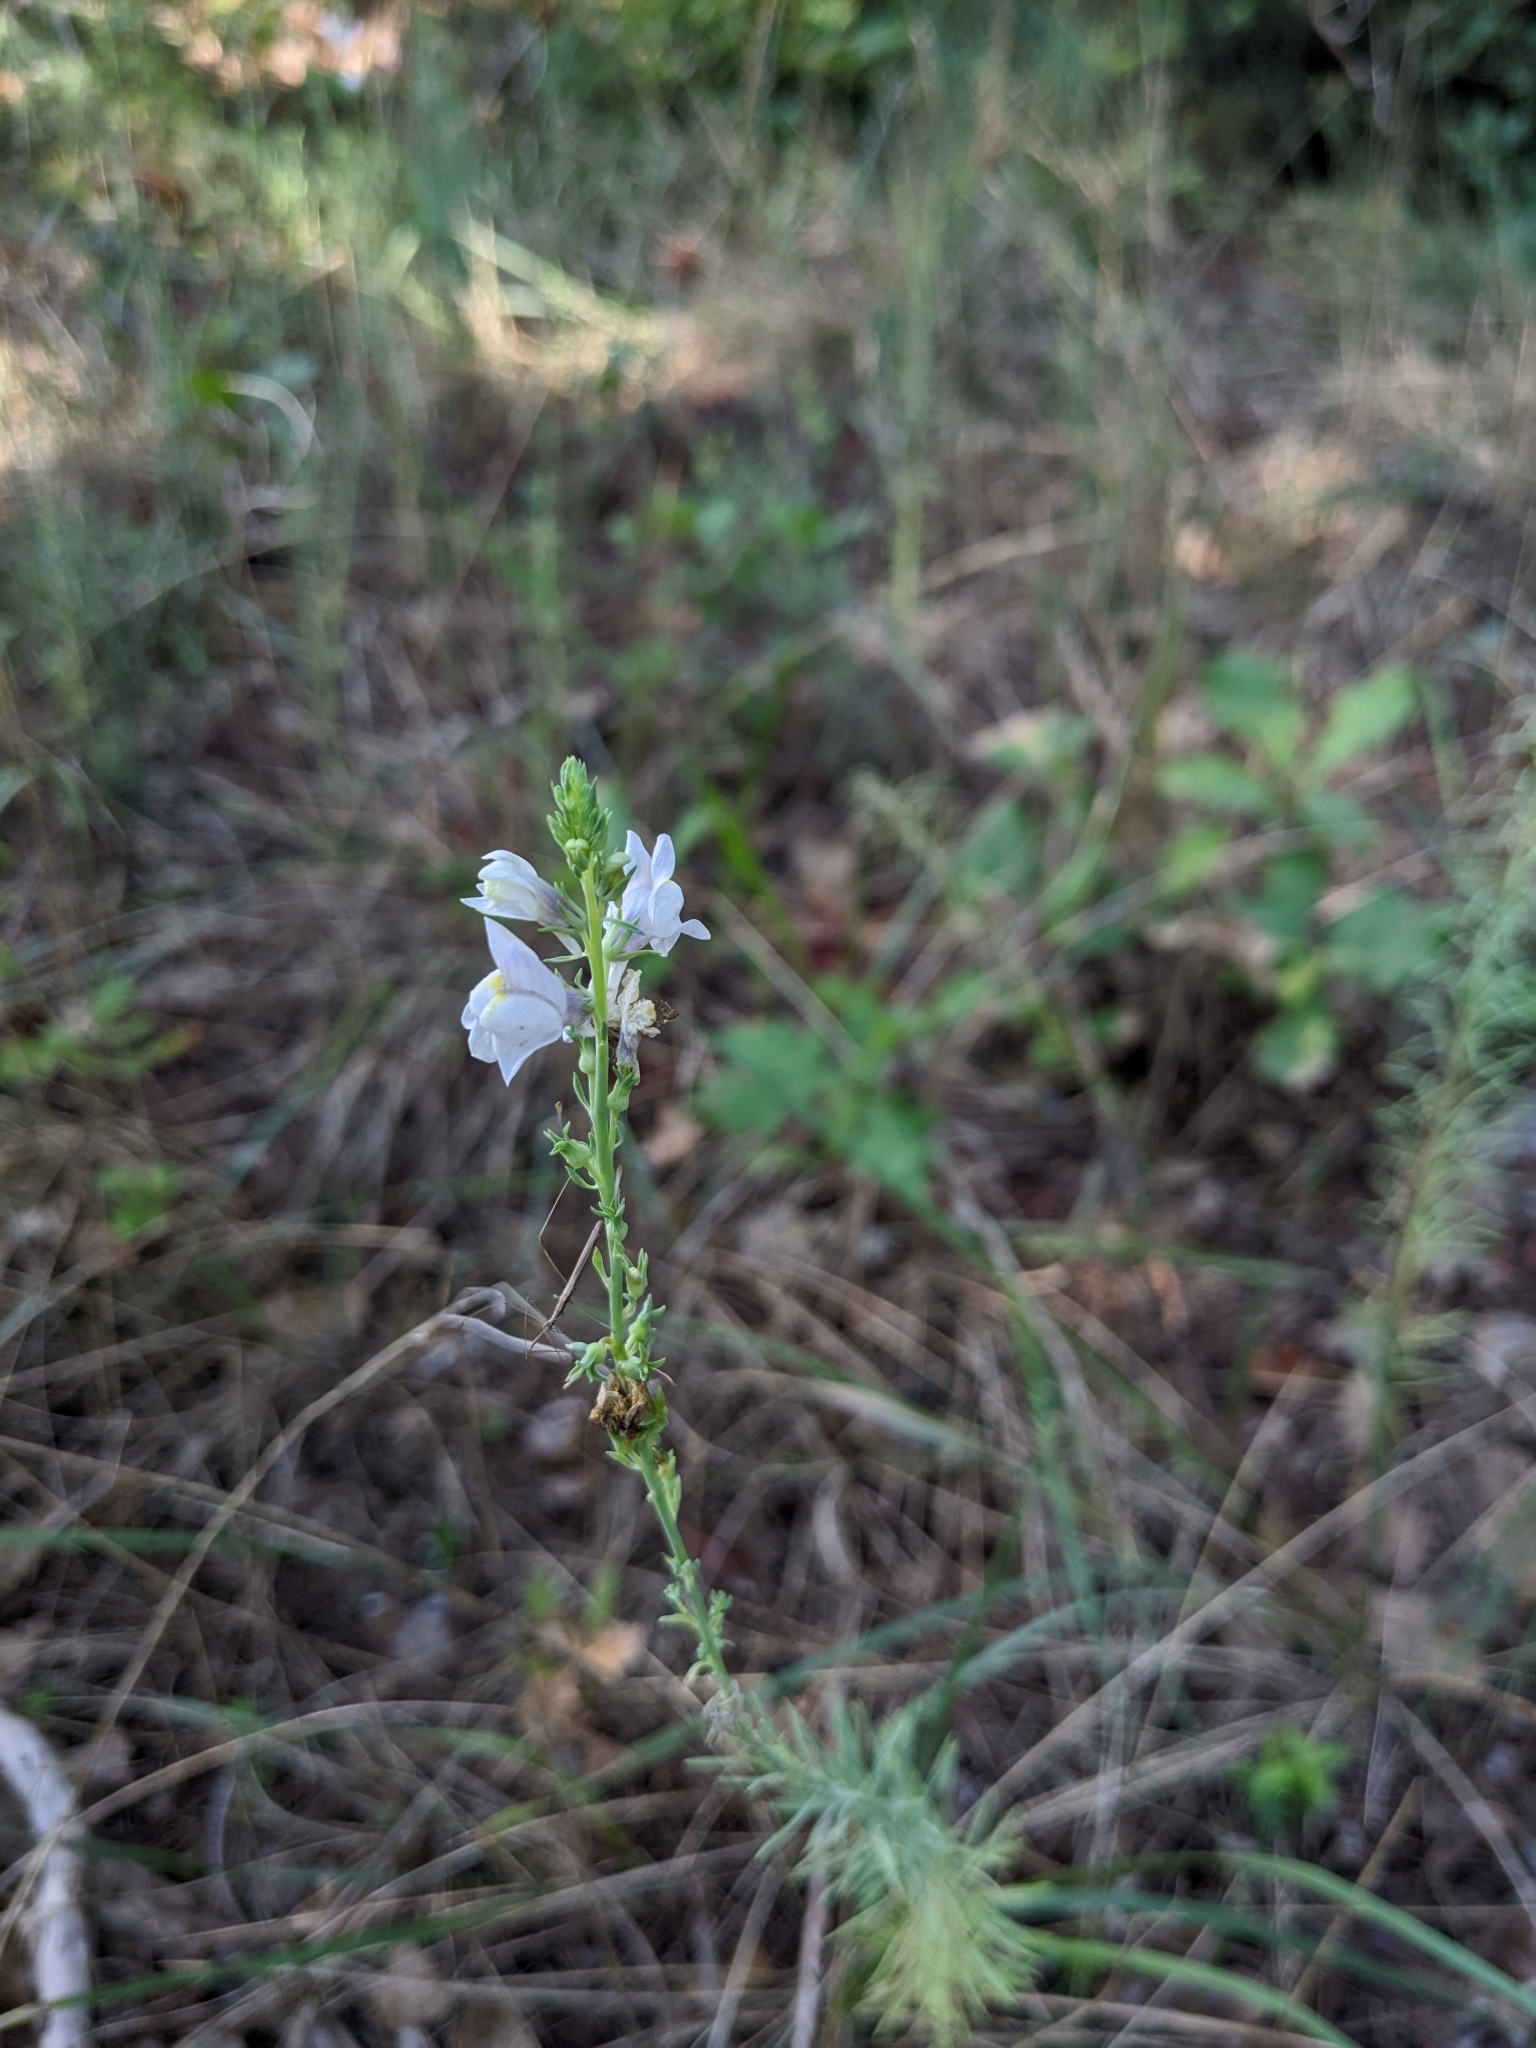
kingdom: Plantae
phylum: Tracheophyta
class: Magnoliopsida
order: Lamiales
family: Plantaginaceae
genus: Linaria
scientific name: Linaria repens
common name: Pale toadflax
